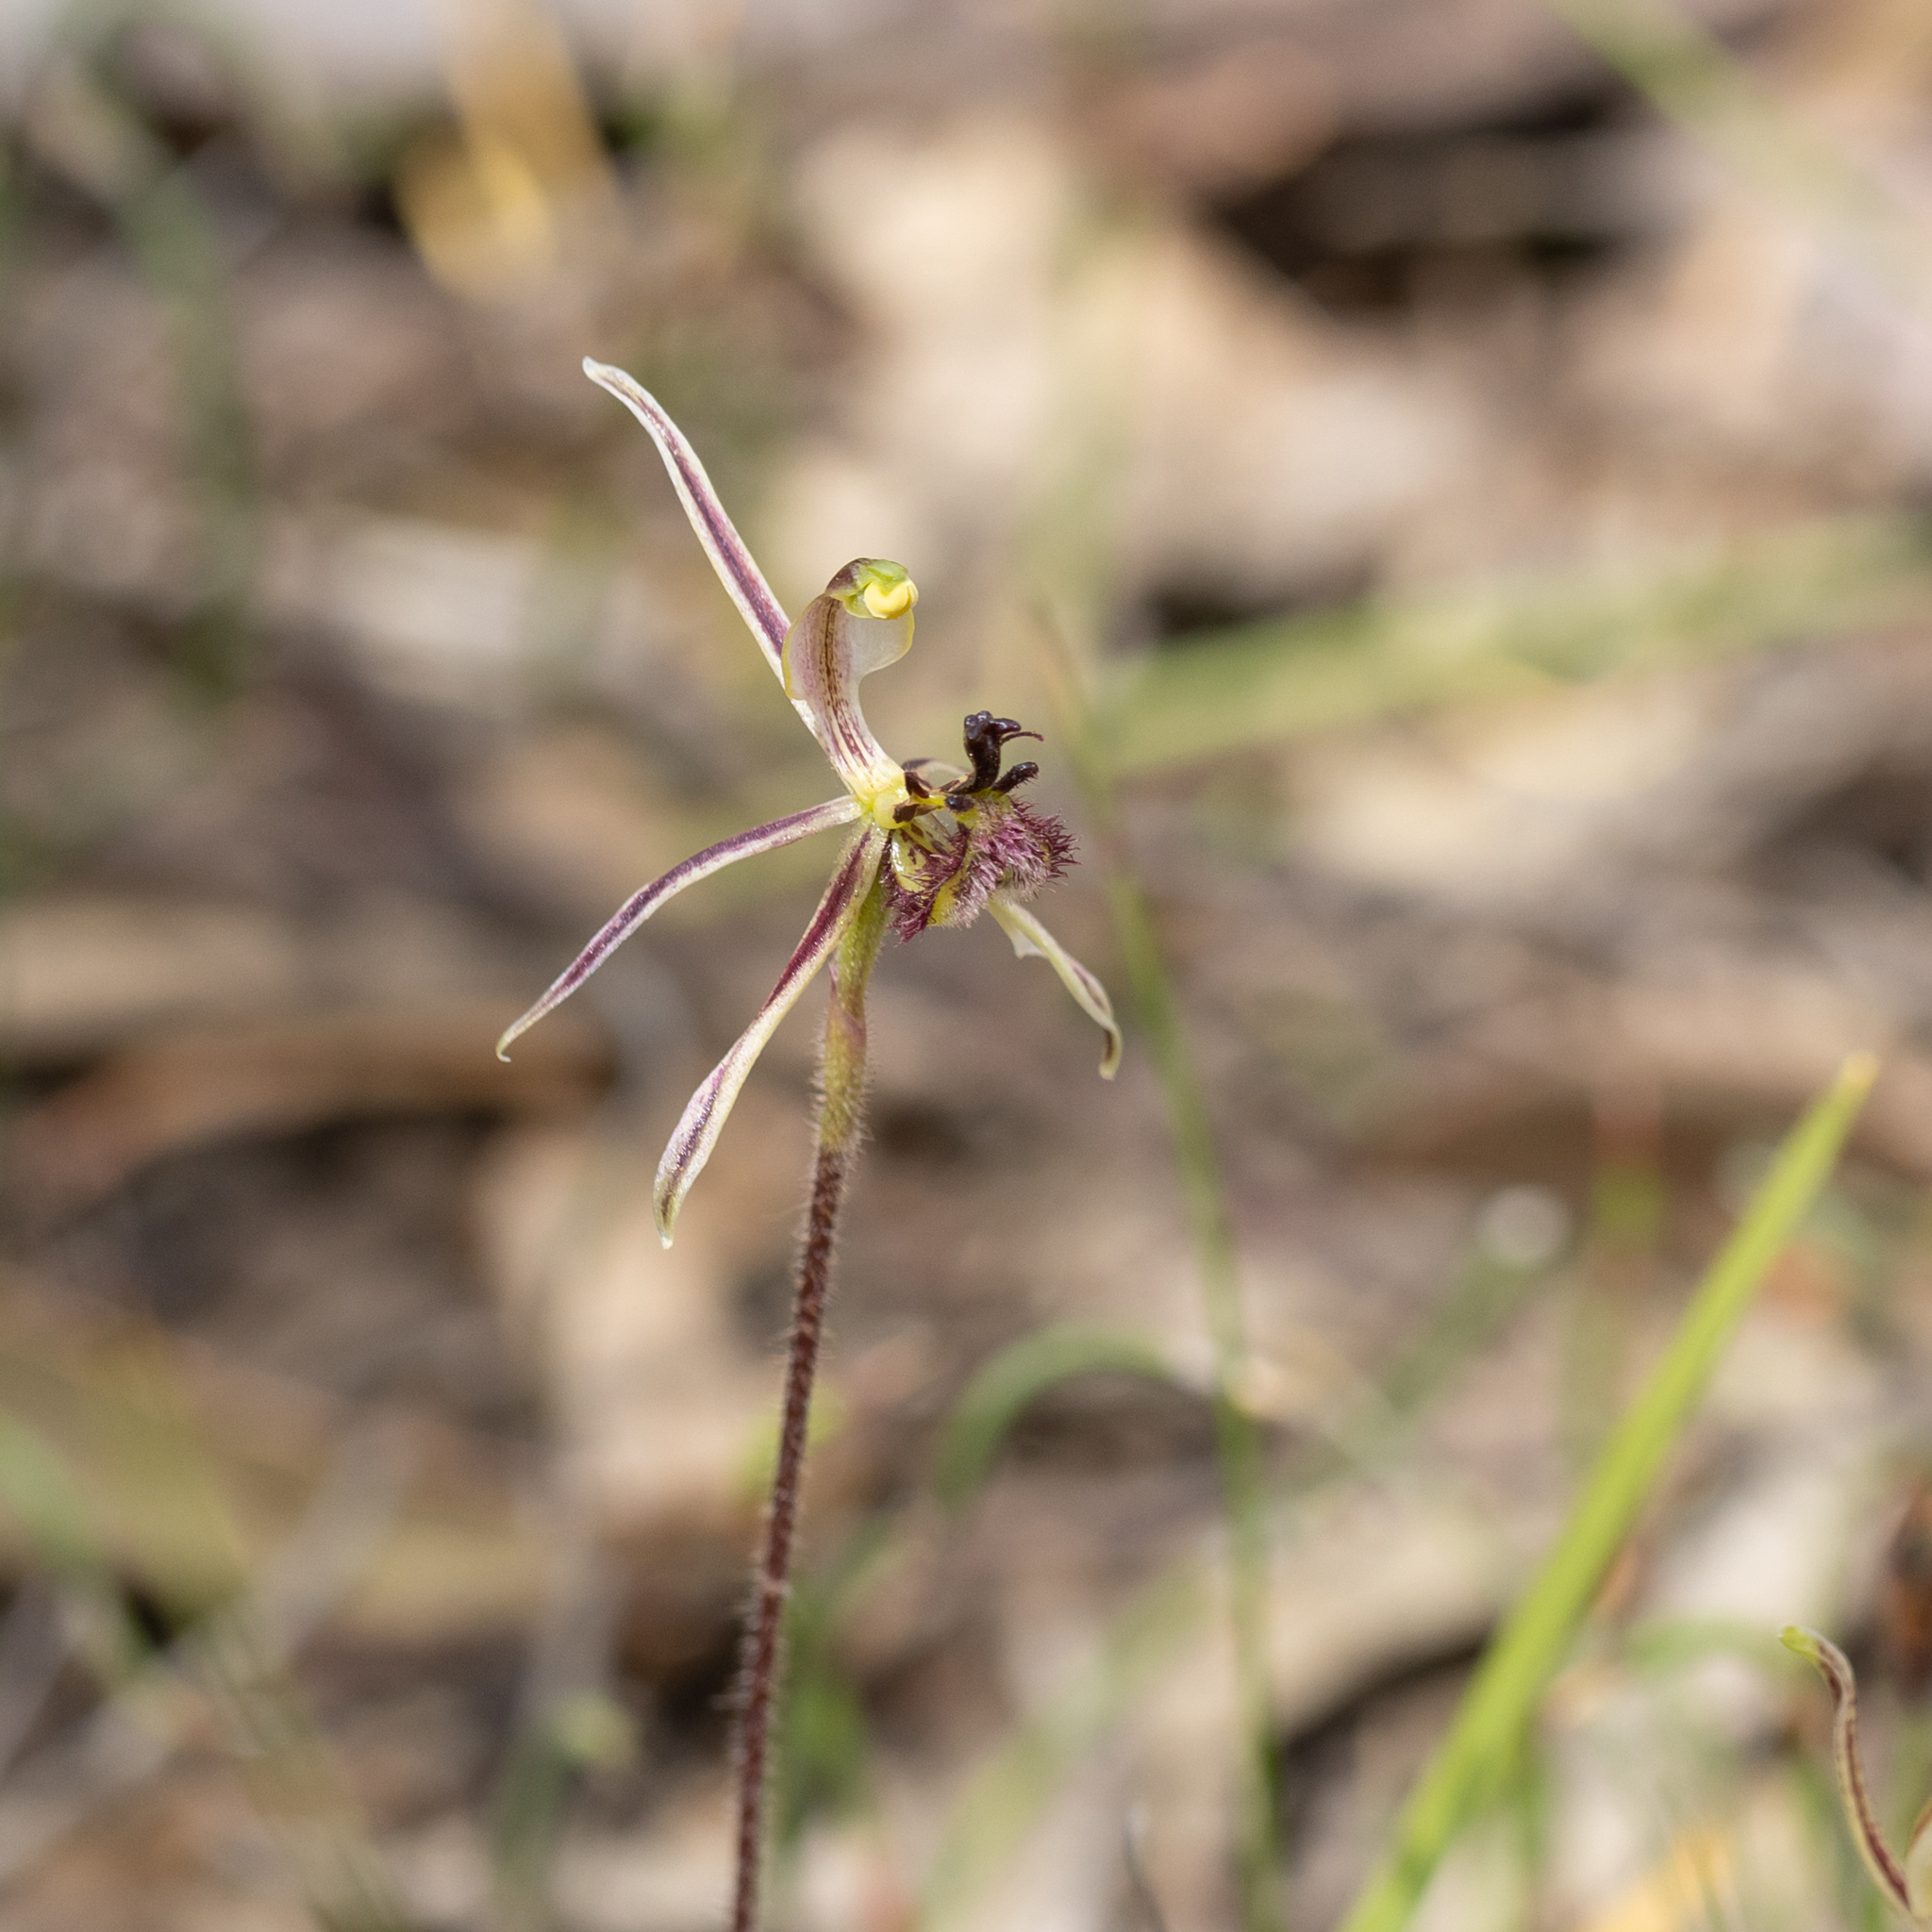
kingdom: Plantae
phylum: Tracheophyta
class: Liliopsida
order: Asparagales
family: Orchidaceae
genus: Caladenia
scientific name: Caladenia barbarossa
